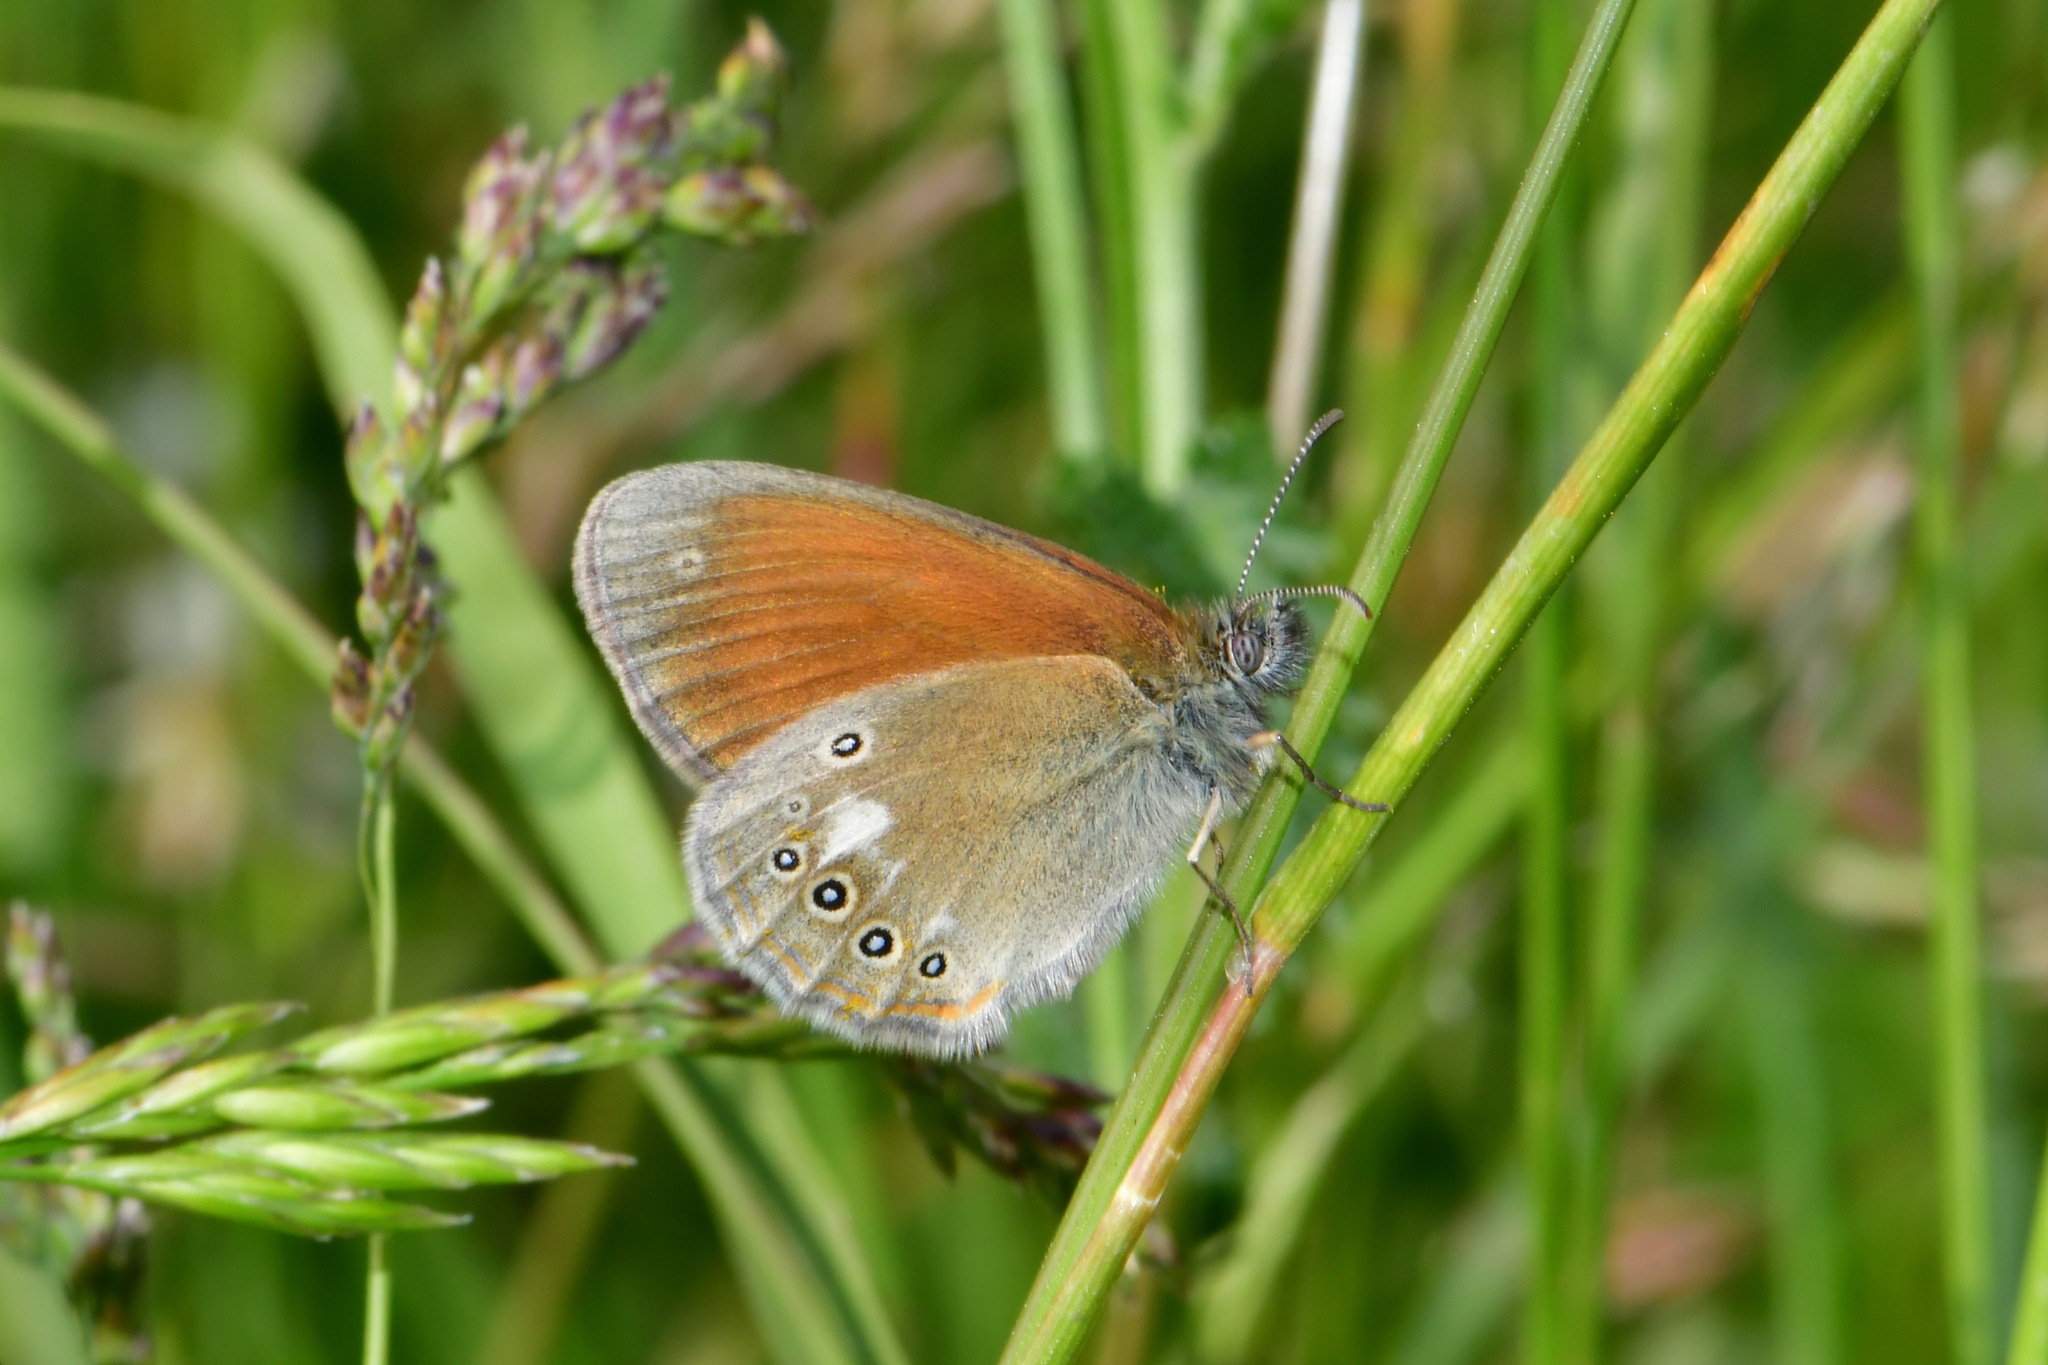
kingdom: Animalia
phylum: Arthropoda
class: Insecta
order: Lepidoptera
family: Nymphalidae
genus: Coenonympha
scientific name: Coenonympha iphis
